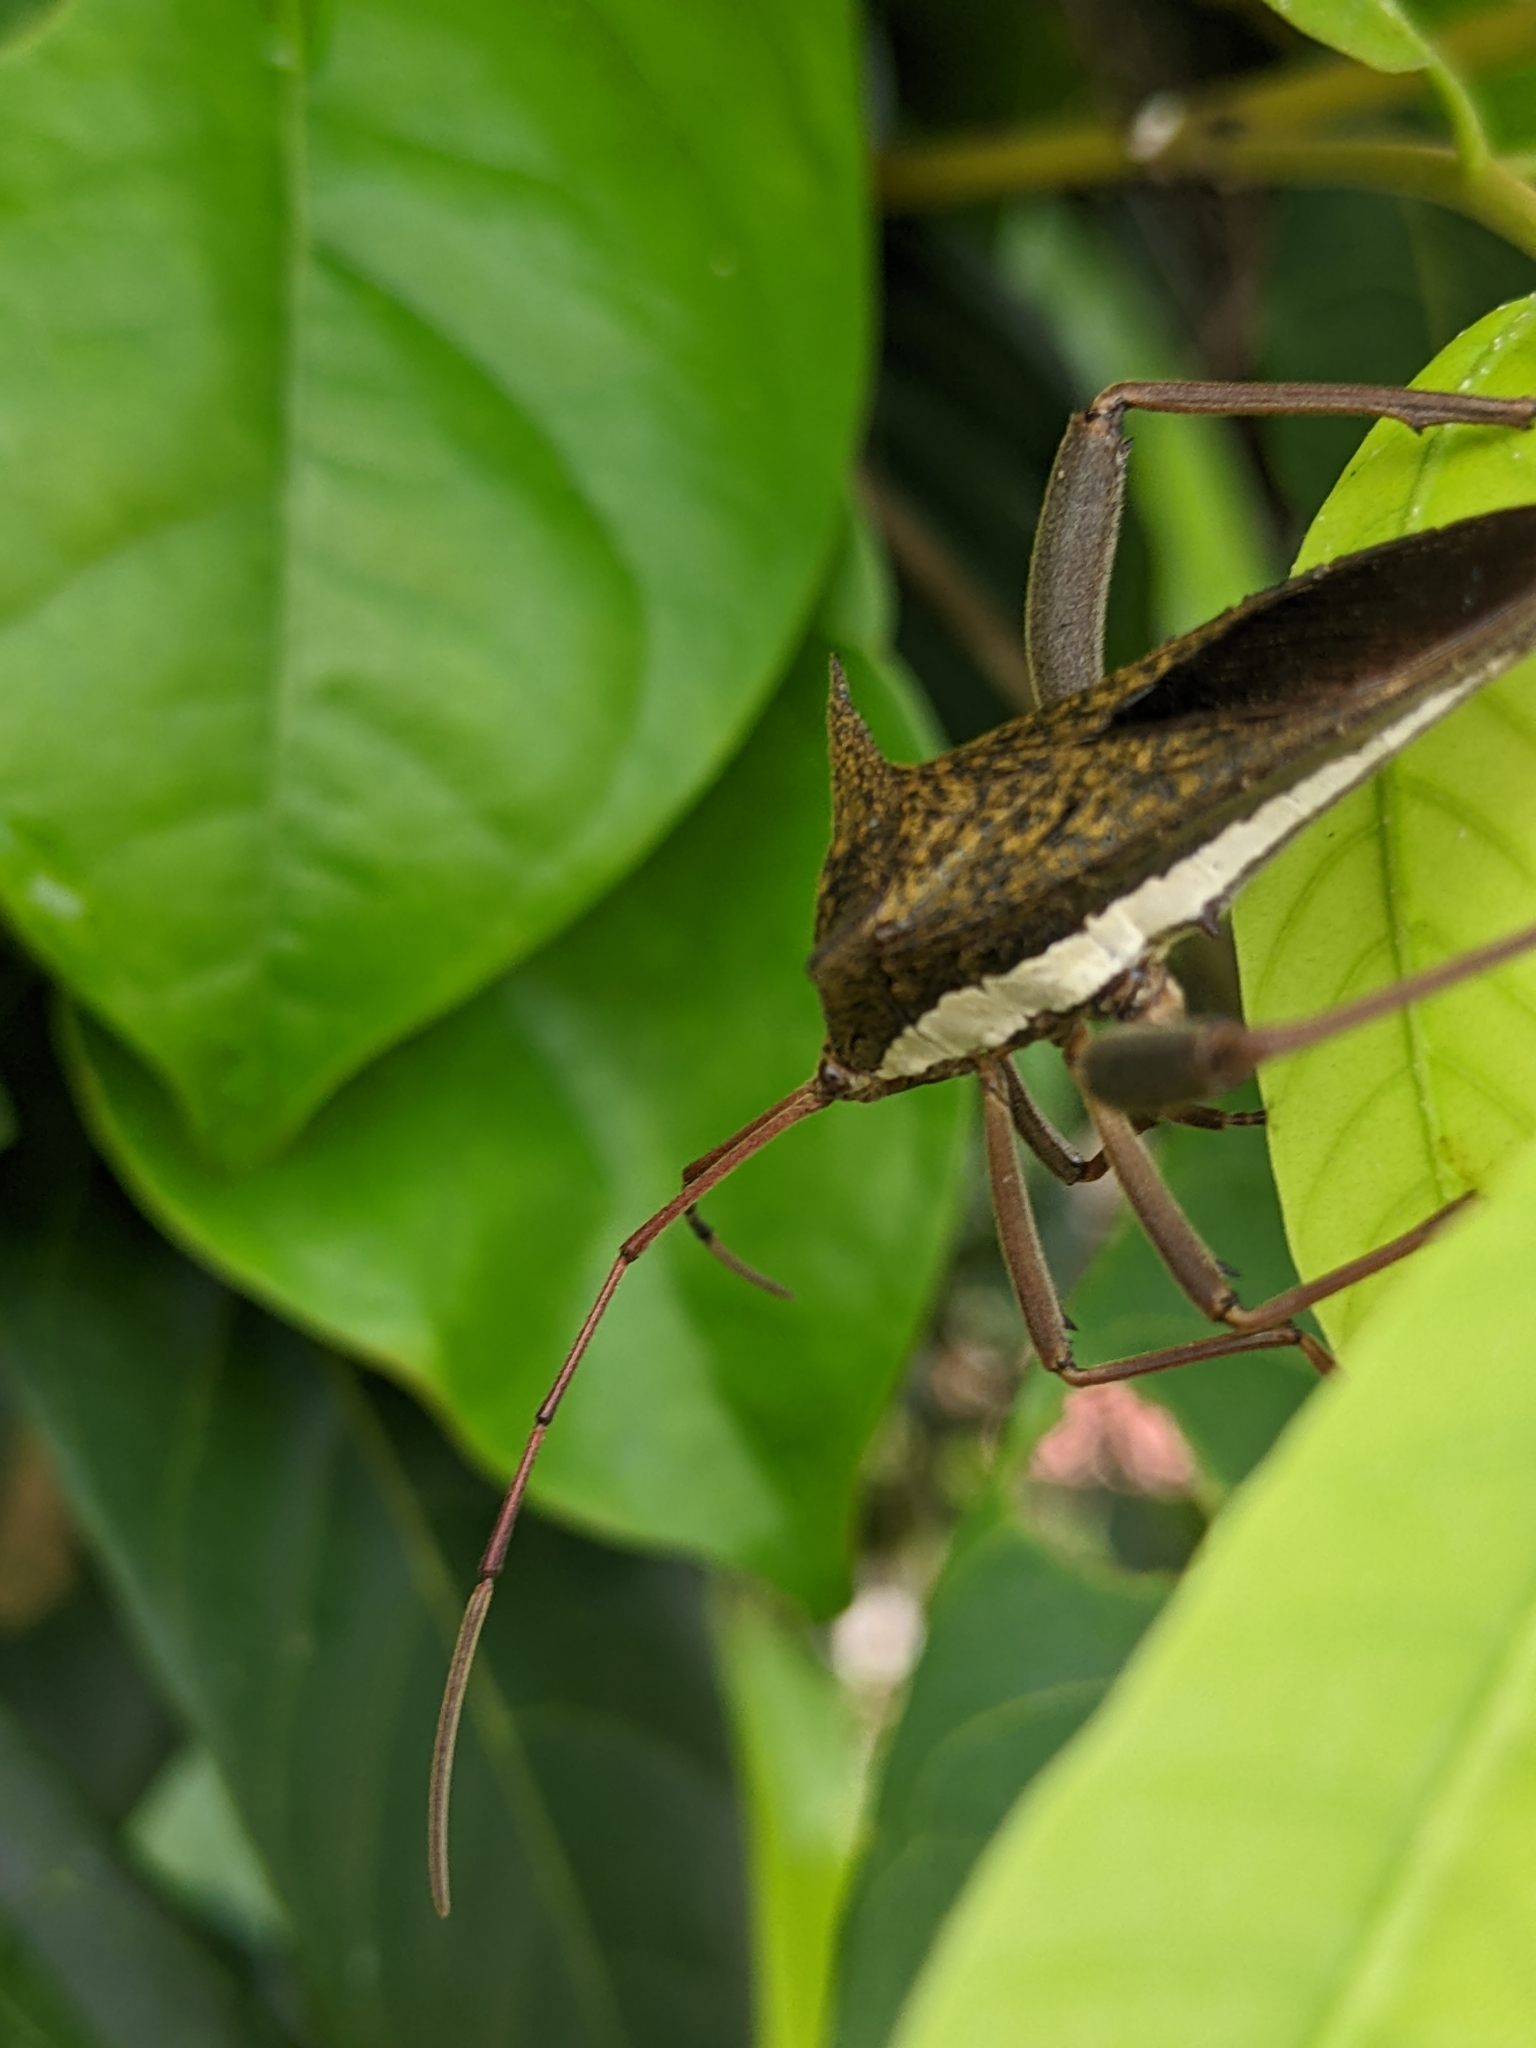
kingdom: Animalia
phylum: Arthropoda
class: Insecta
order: Hemiptera
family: Coreidae
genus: Aspilosterna
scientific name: Aspilosterna albovittata
